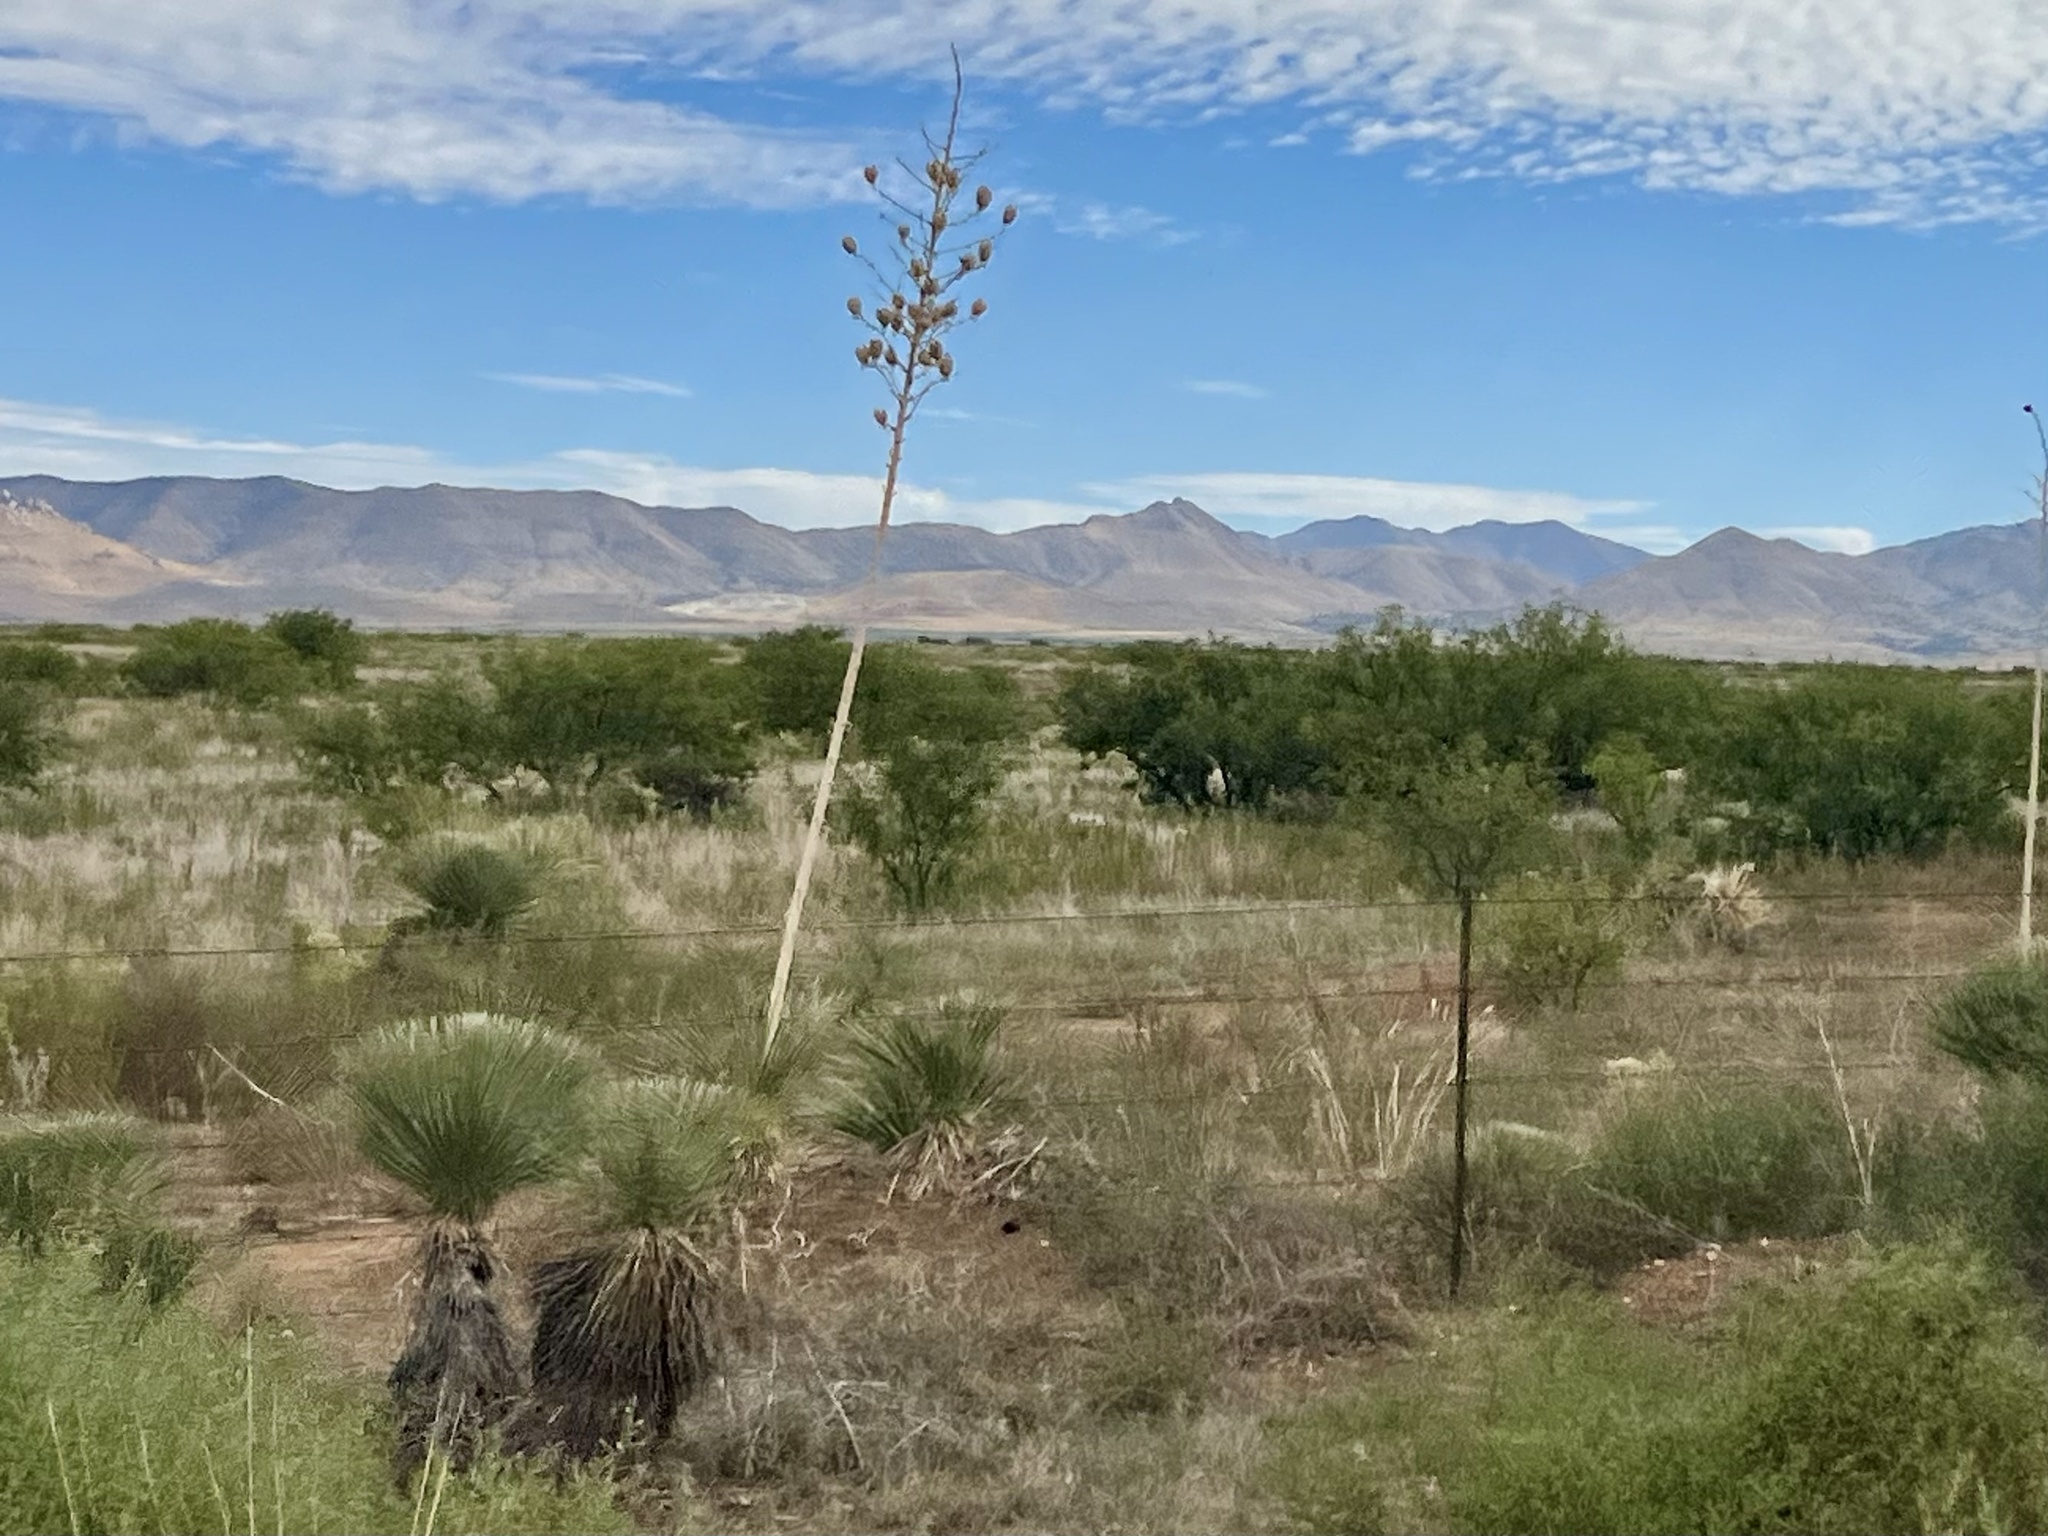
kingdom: Plantae
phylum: Tracheophyta
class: Liliopsida
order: Asparagales
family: Asparagaceae
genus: Yucca
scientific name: Yucca elata
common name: Palmella
